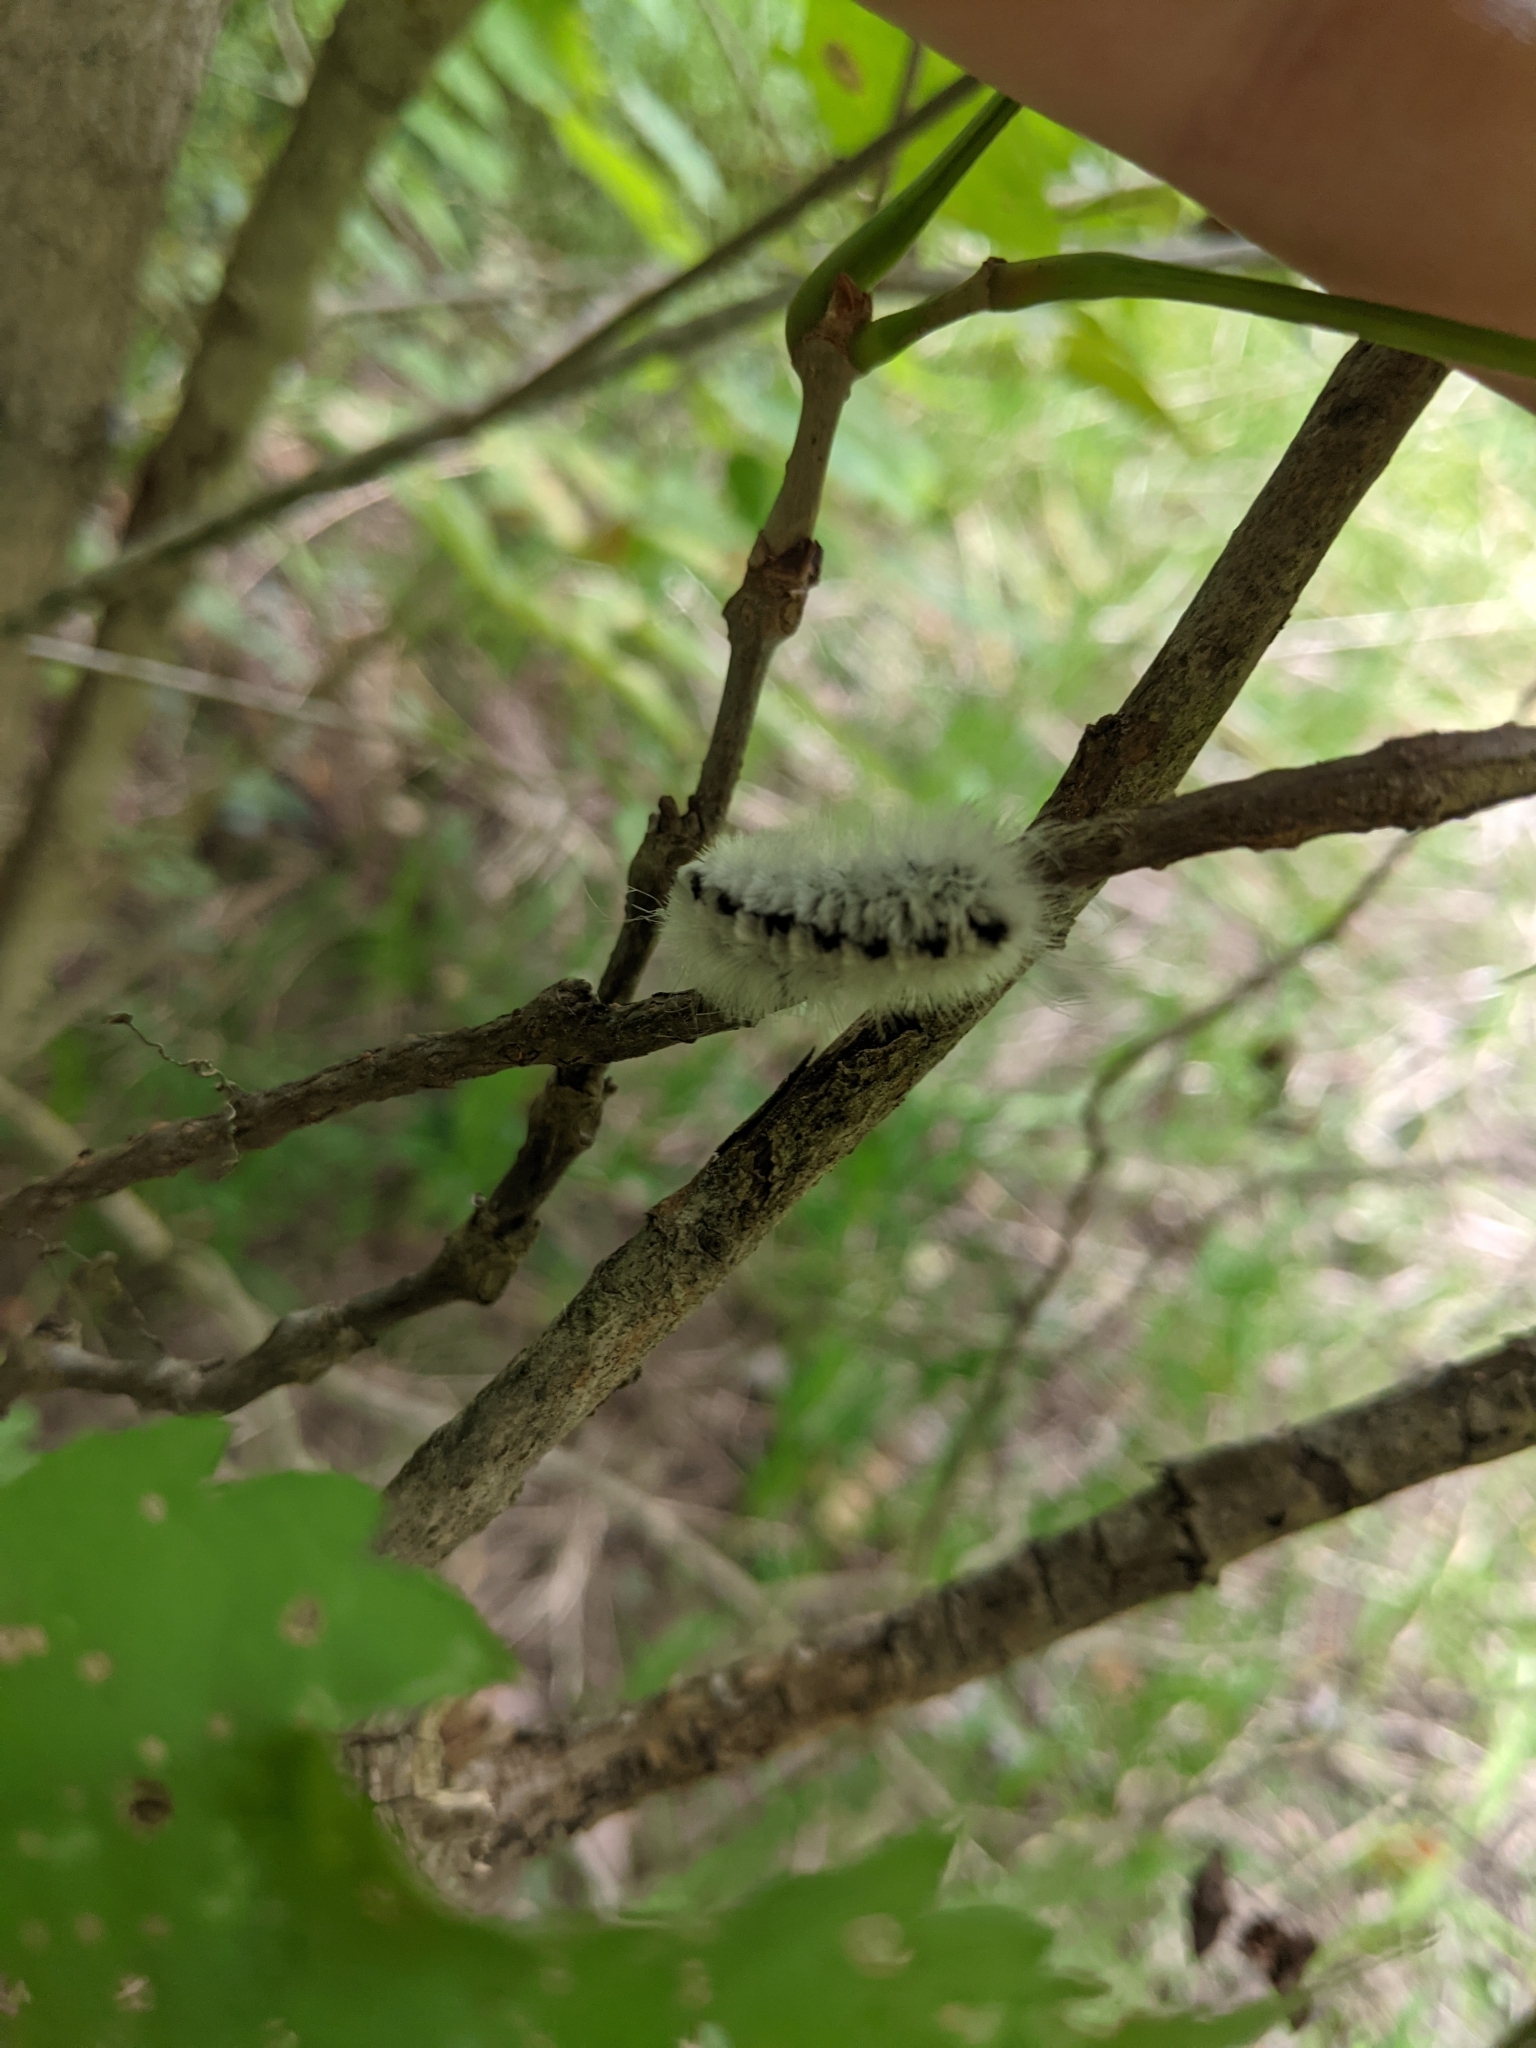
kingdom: Animalia
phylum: Arthropoda
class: Insecta
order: Lepidoptera
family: Erebidae
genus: Lophocampa
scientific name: Lophocampa caryae
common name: Hickory tussock moth
